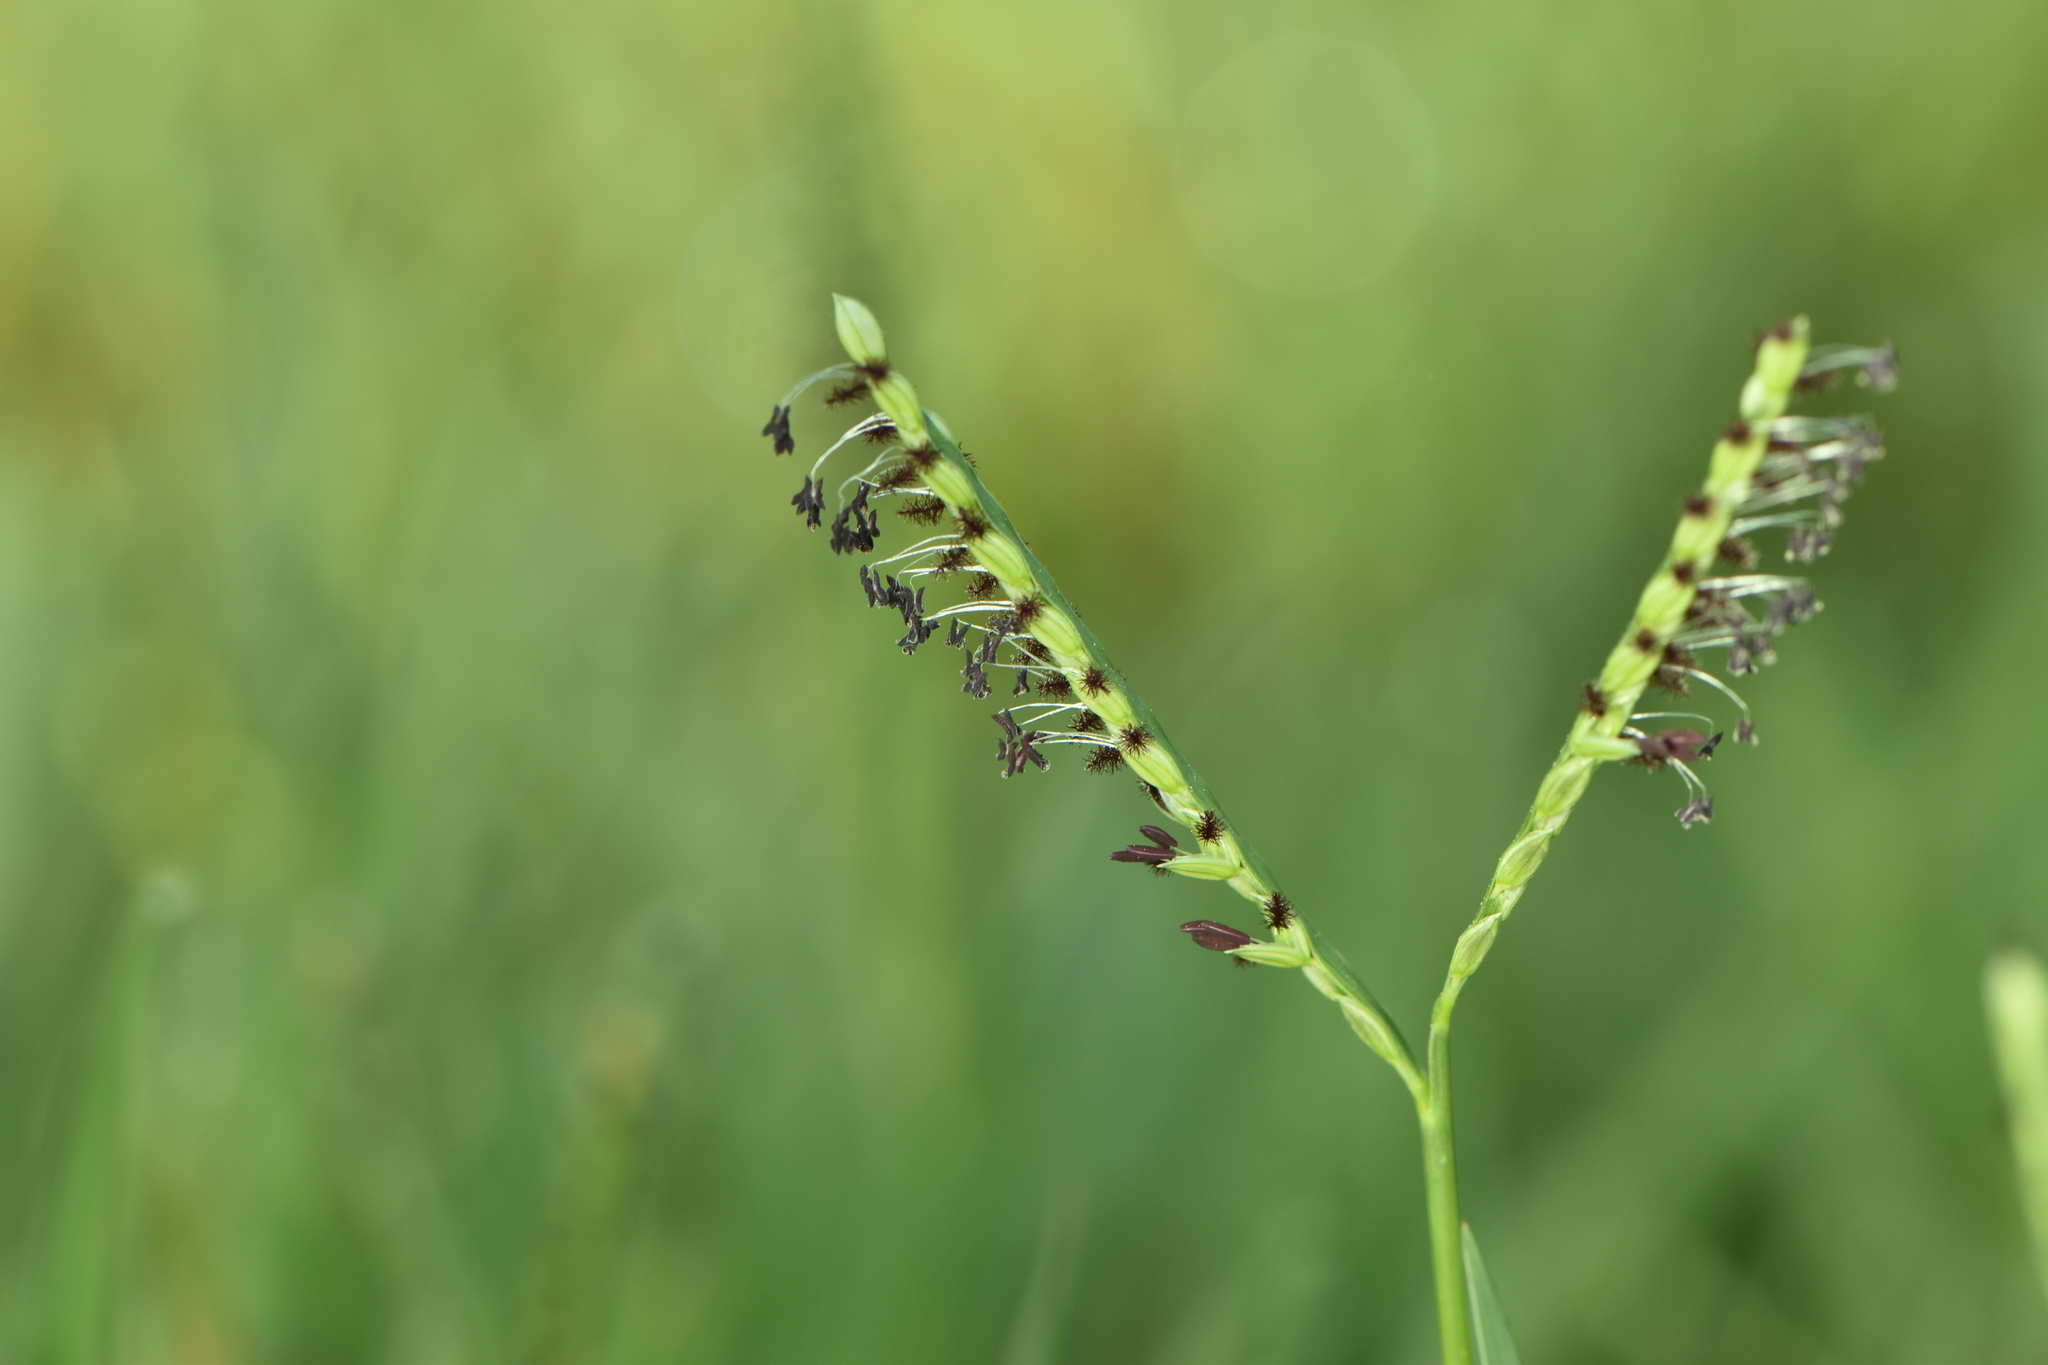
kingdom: Plantae
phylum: Tracheophyta
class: Liliopsida
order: Poales
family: Poaceae
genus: Paspalum
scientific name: Paspalum distichum
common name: Knotgrass
